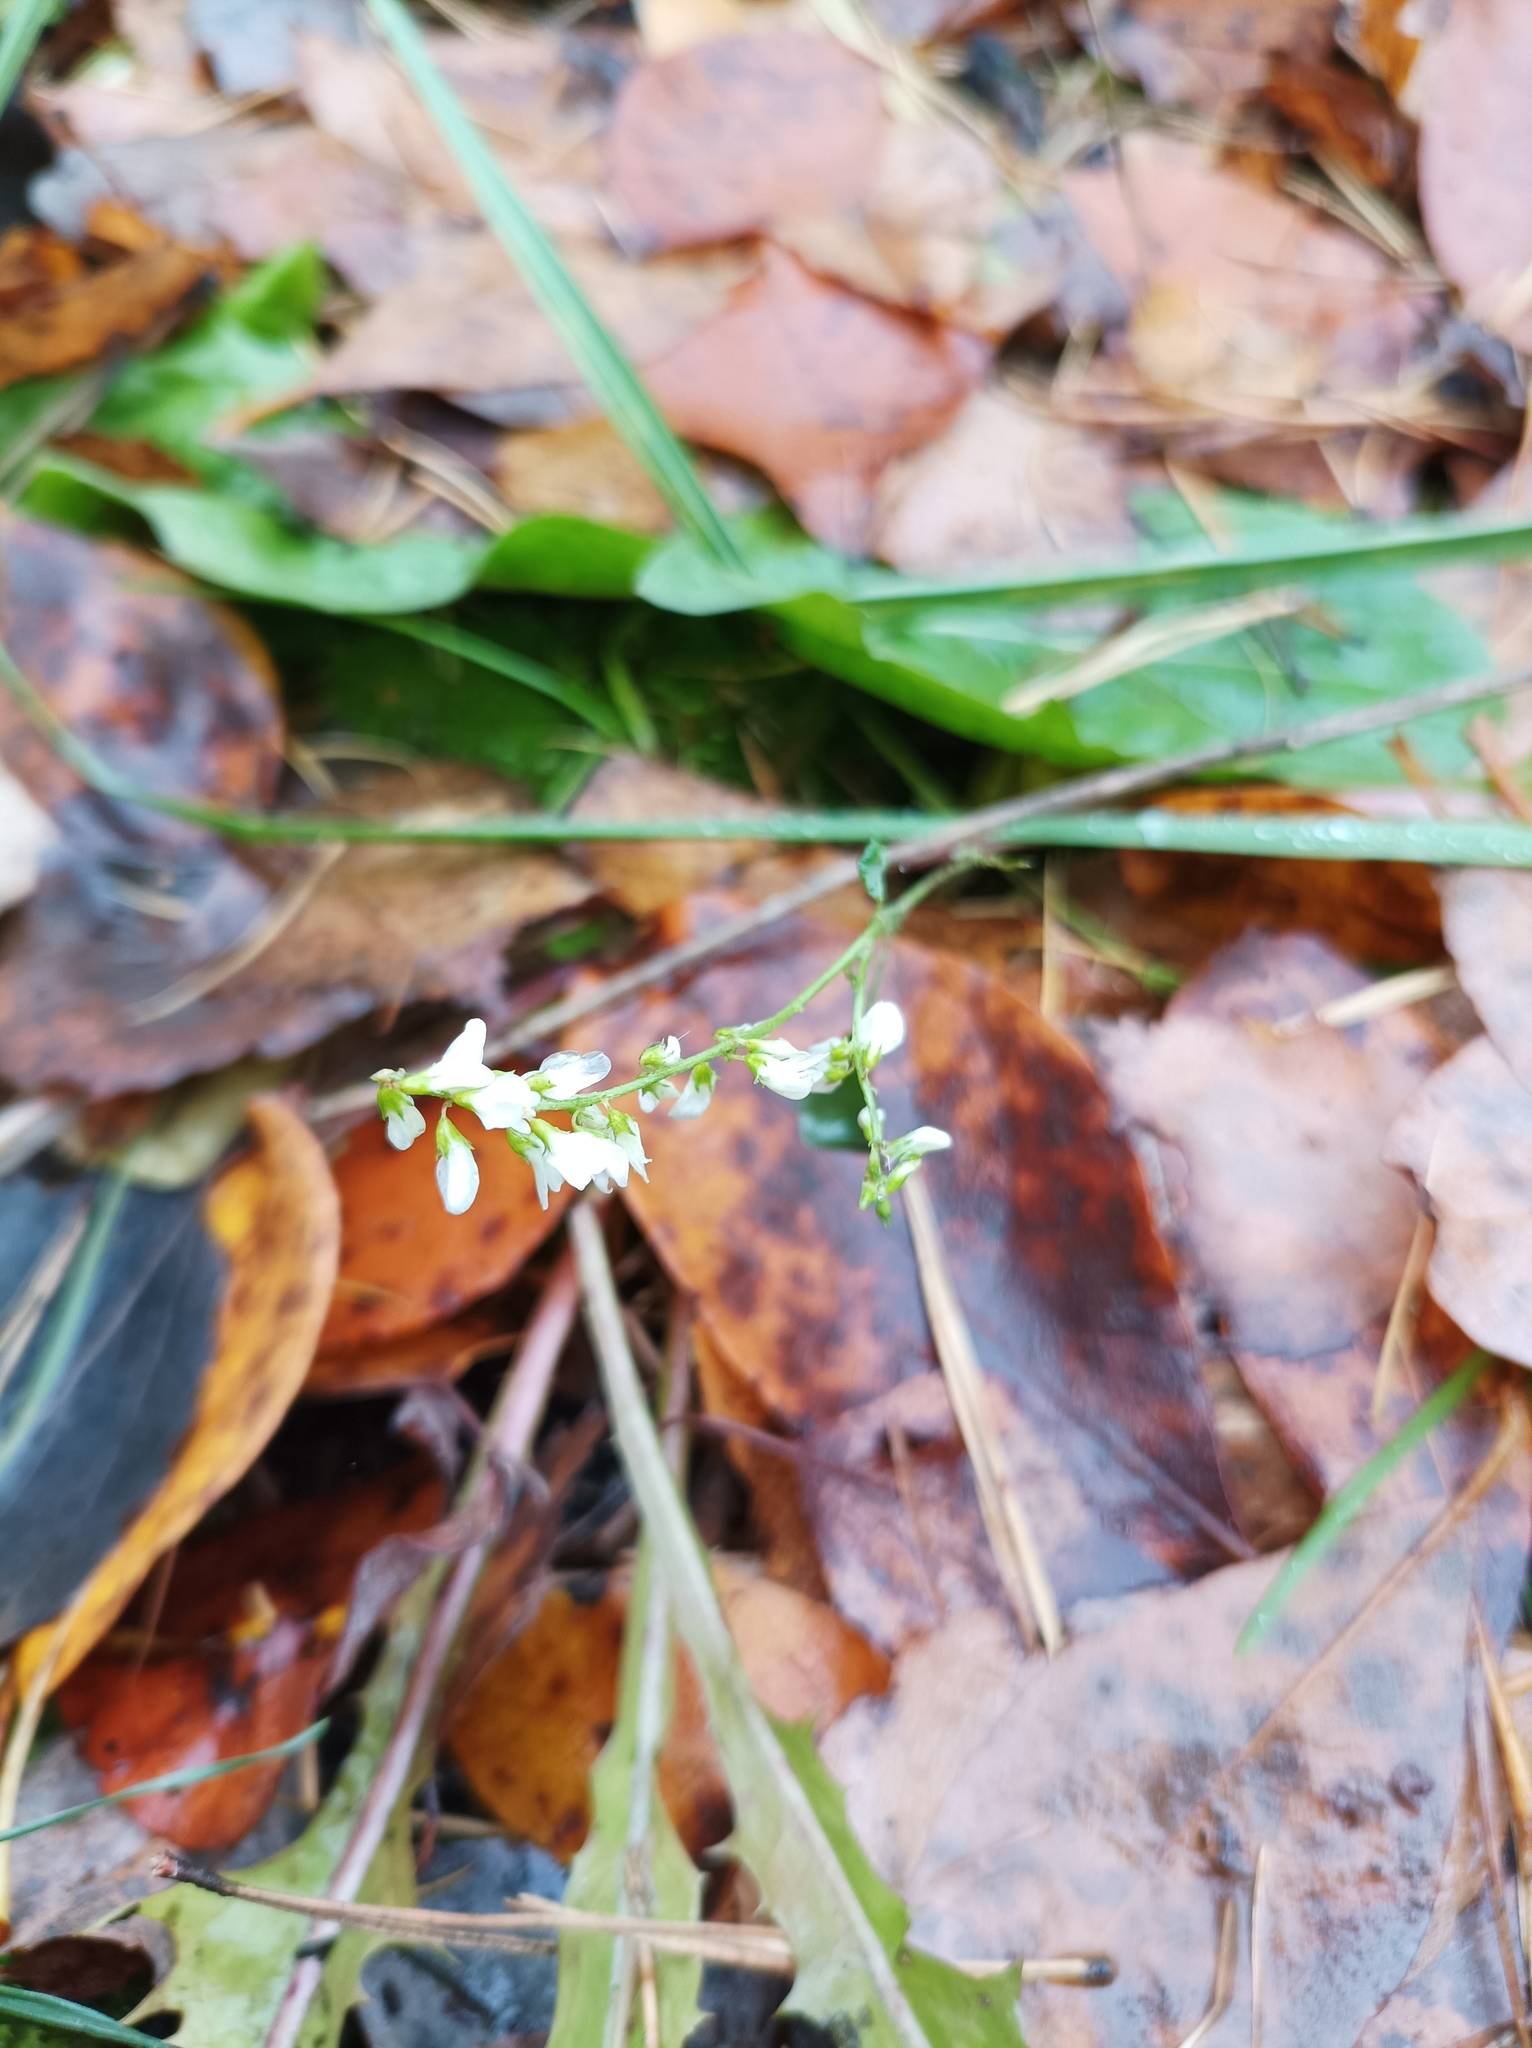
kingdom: Plantae
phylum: Tracheophyta
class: Magnoliopsida
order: Fabales
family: Fabaceae
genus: Melilotus
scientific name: Melilotus albus
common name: White melilot
